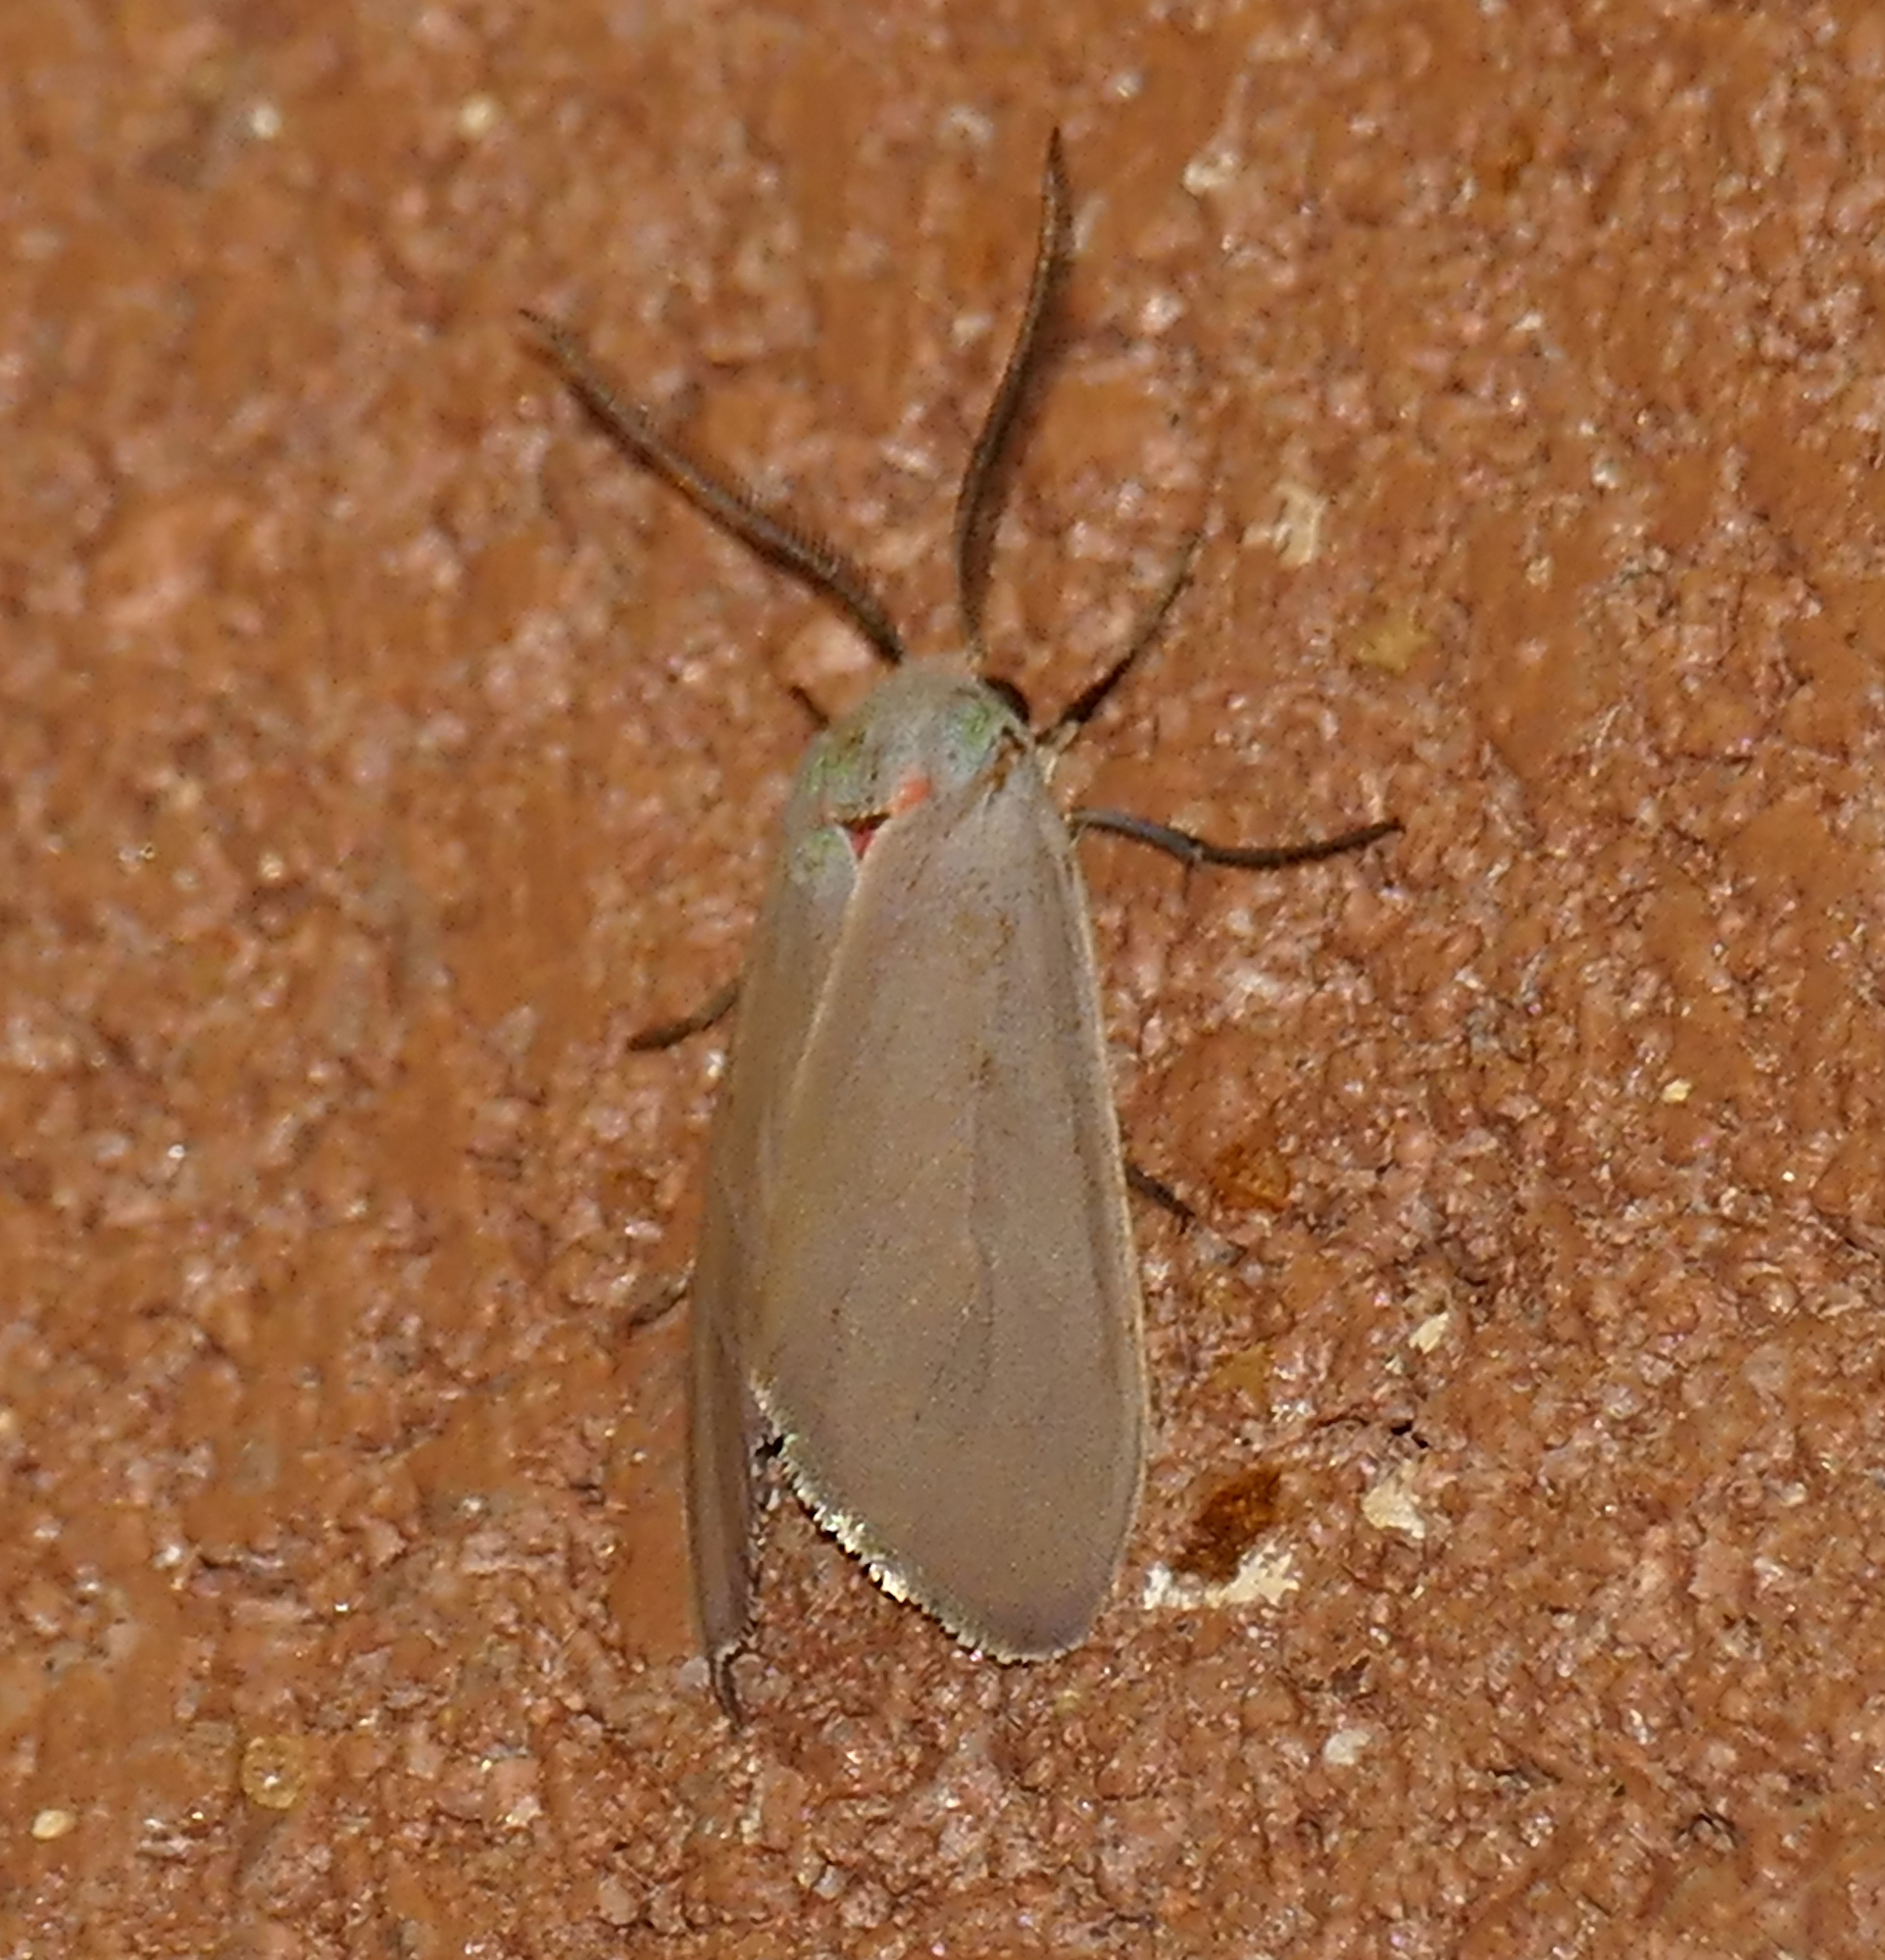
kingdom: Animalia
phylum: Arthropoda
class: Insecta
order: Lepidoptera
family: Erebidae
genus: Pygarctia
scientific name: Pygarctia murina
